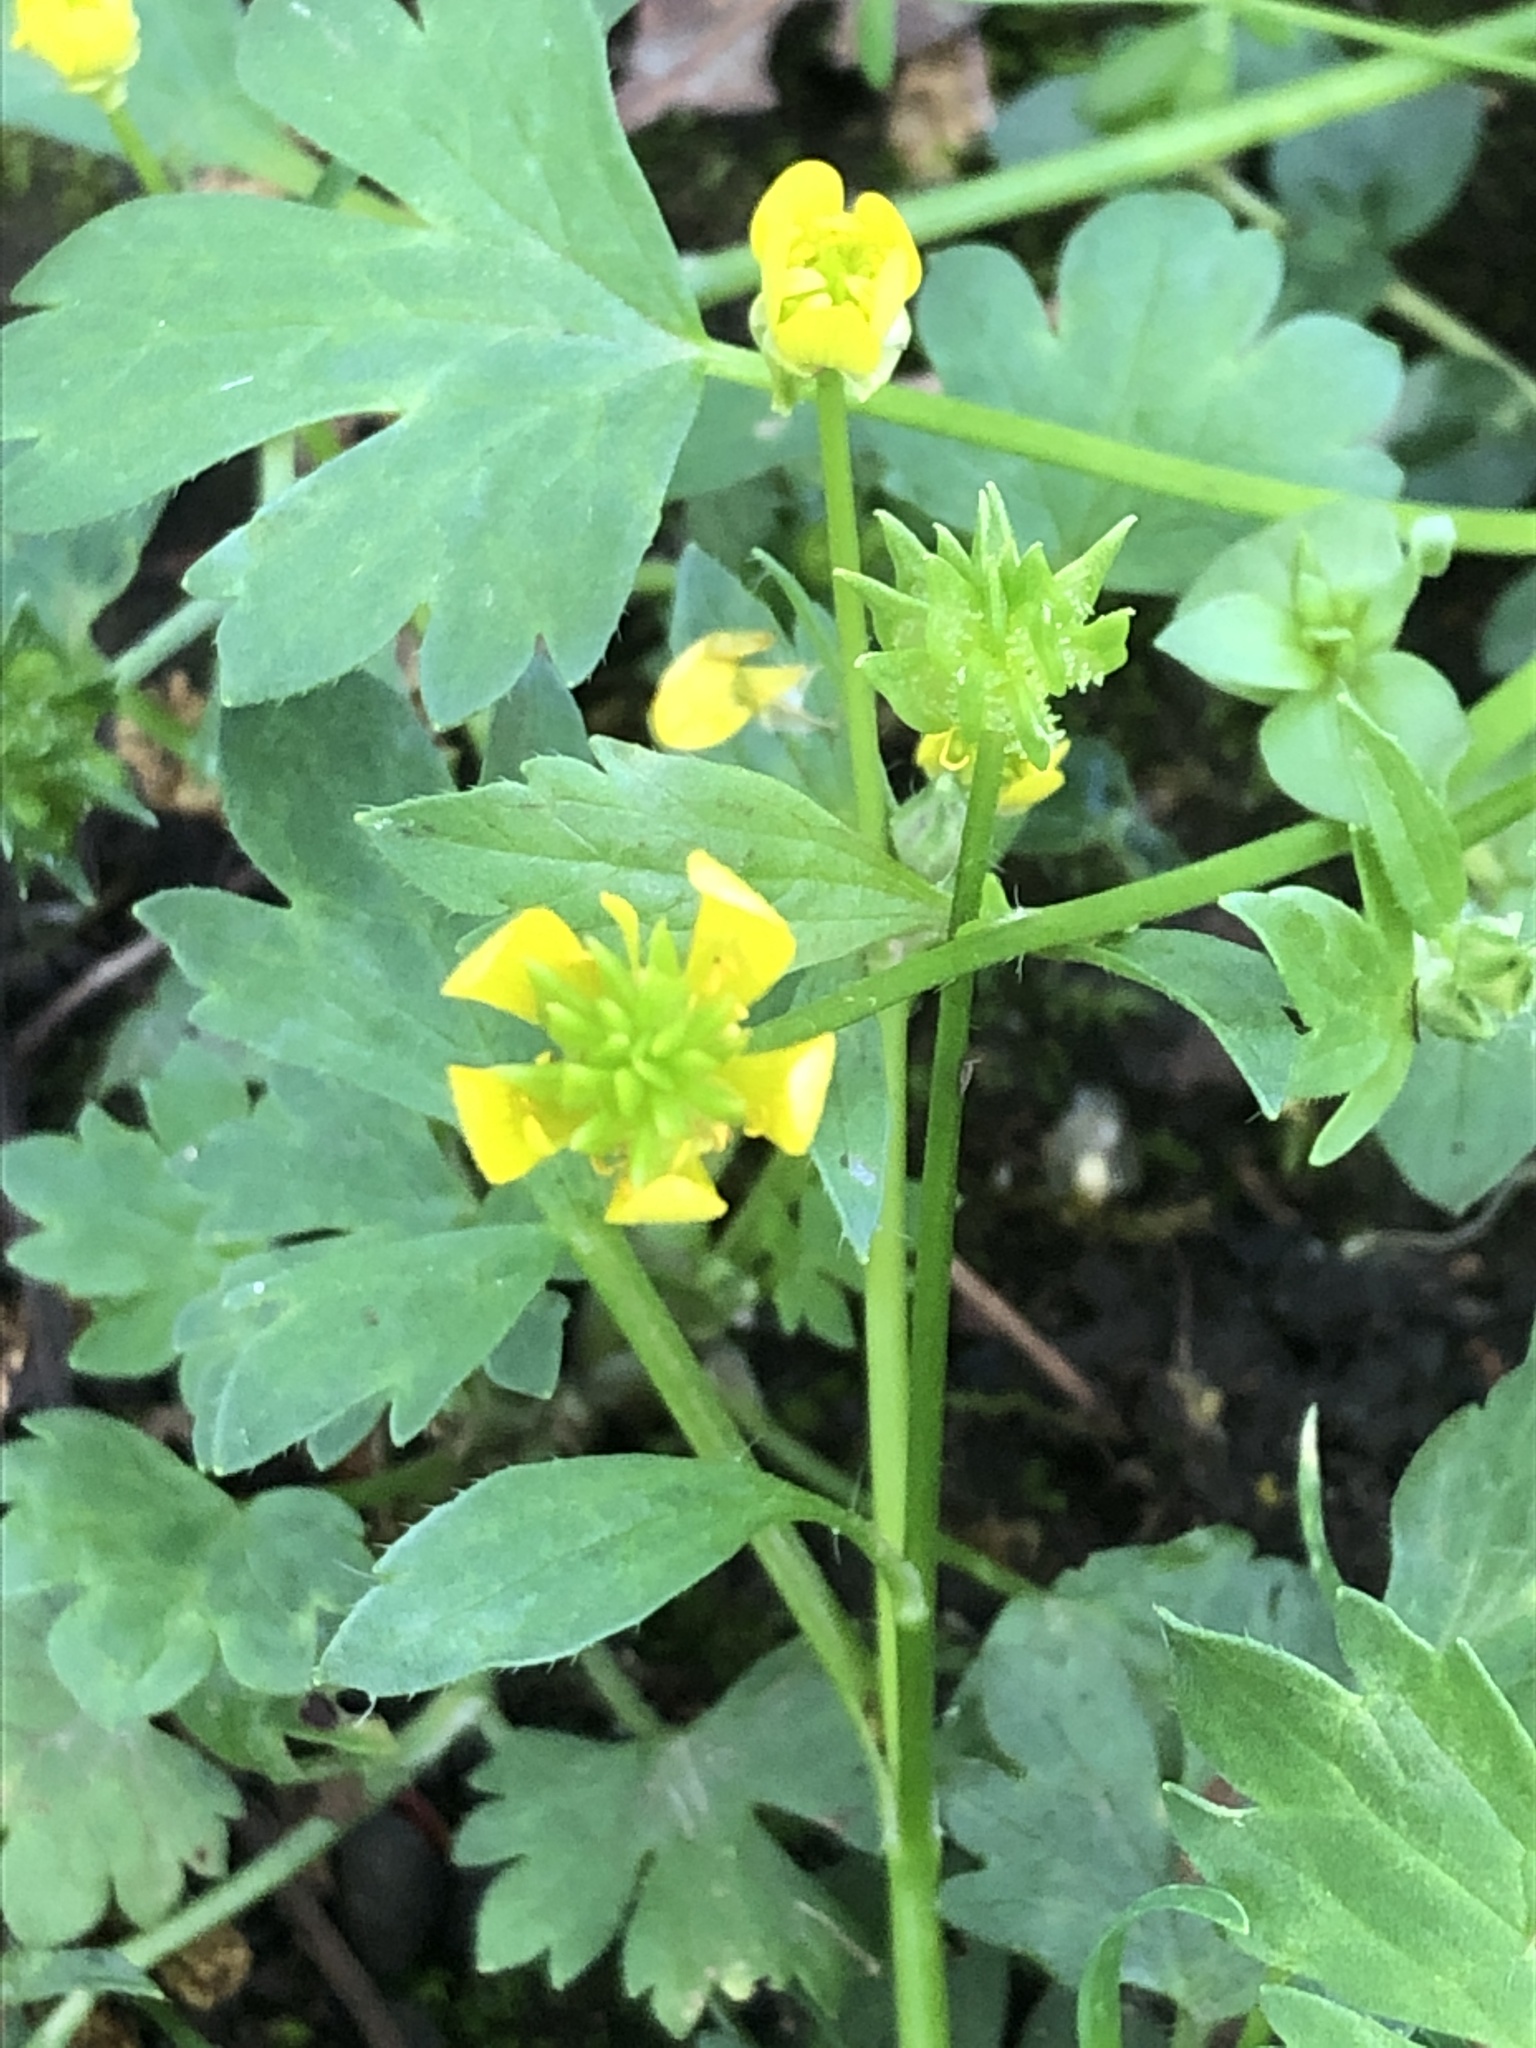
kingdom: Plantae
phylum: Tracheophyta
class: Magnoliopsida
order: Ranunculales
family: Ranunculaceae
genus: Ranunculus
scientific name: Ranunculus muricatus
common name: Rough-fruited buttercup
